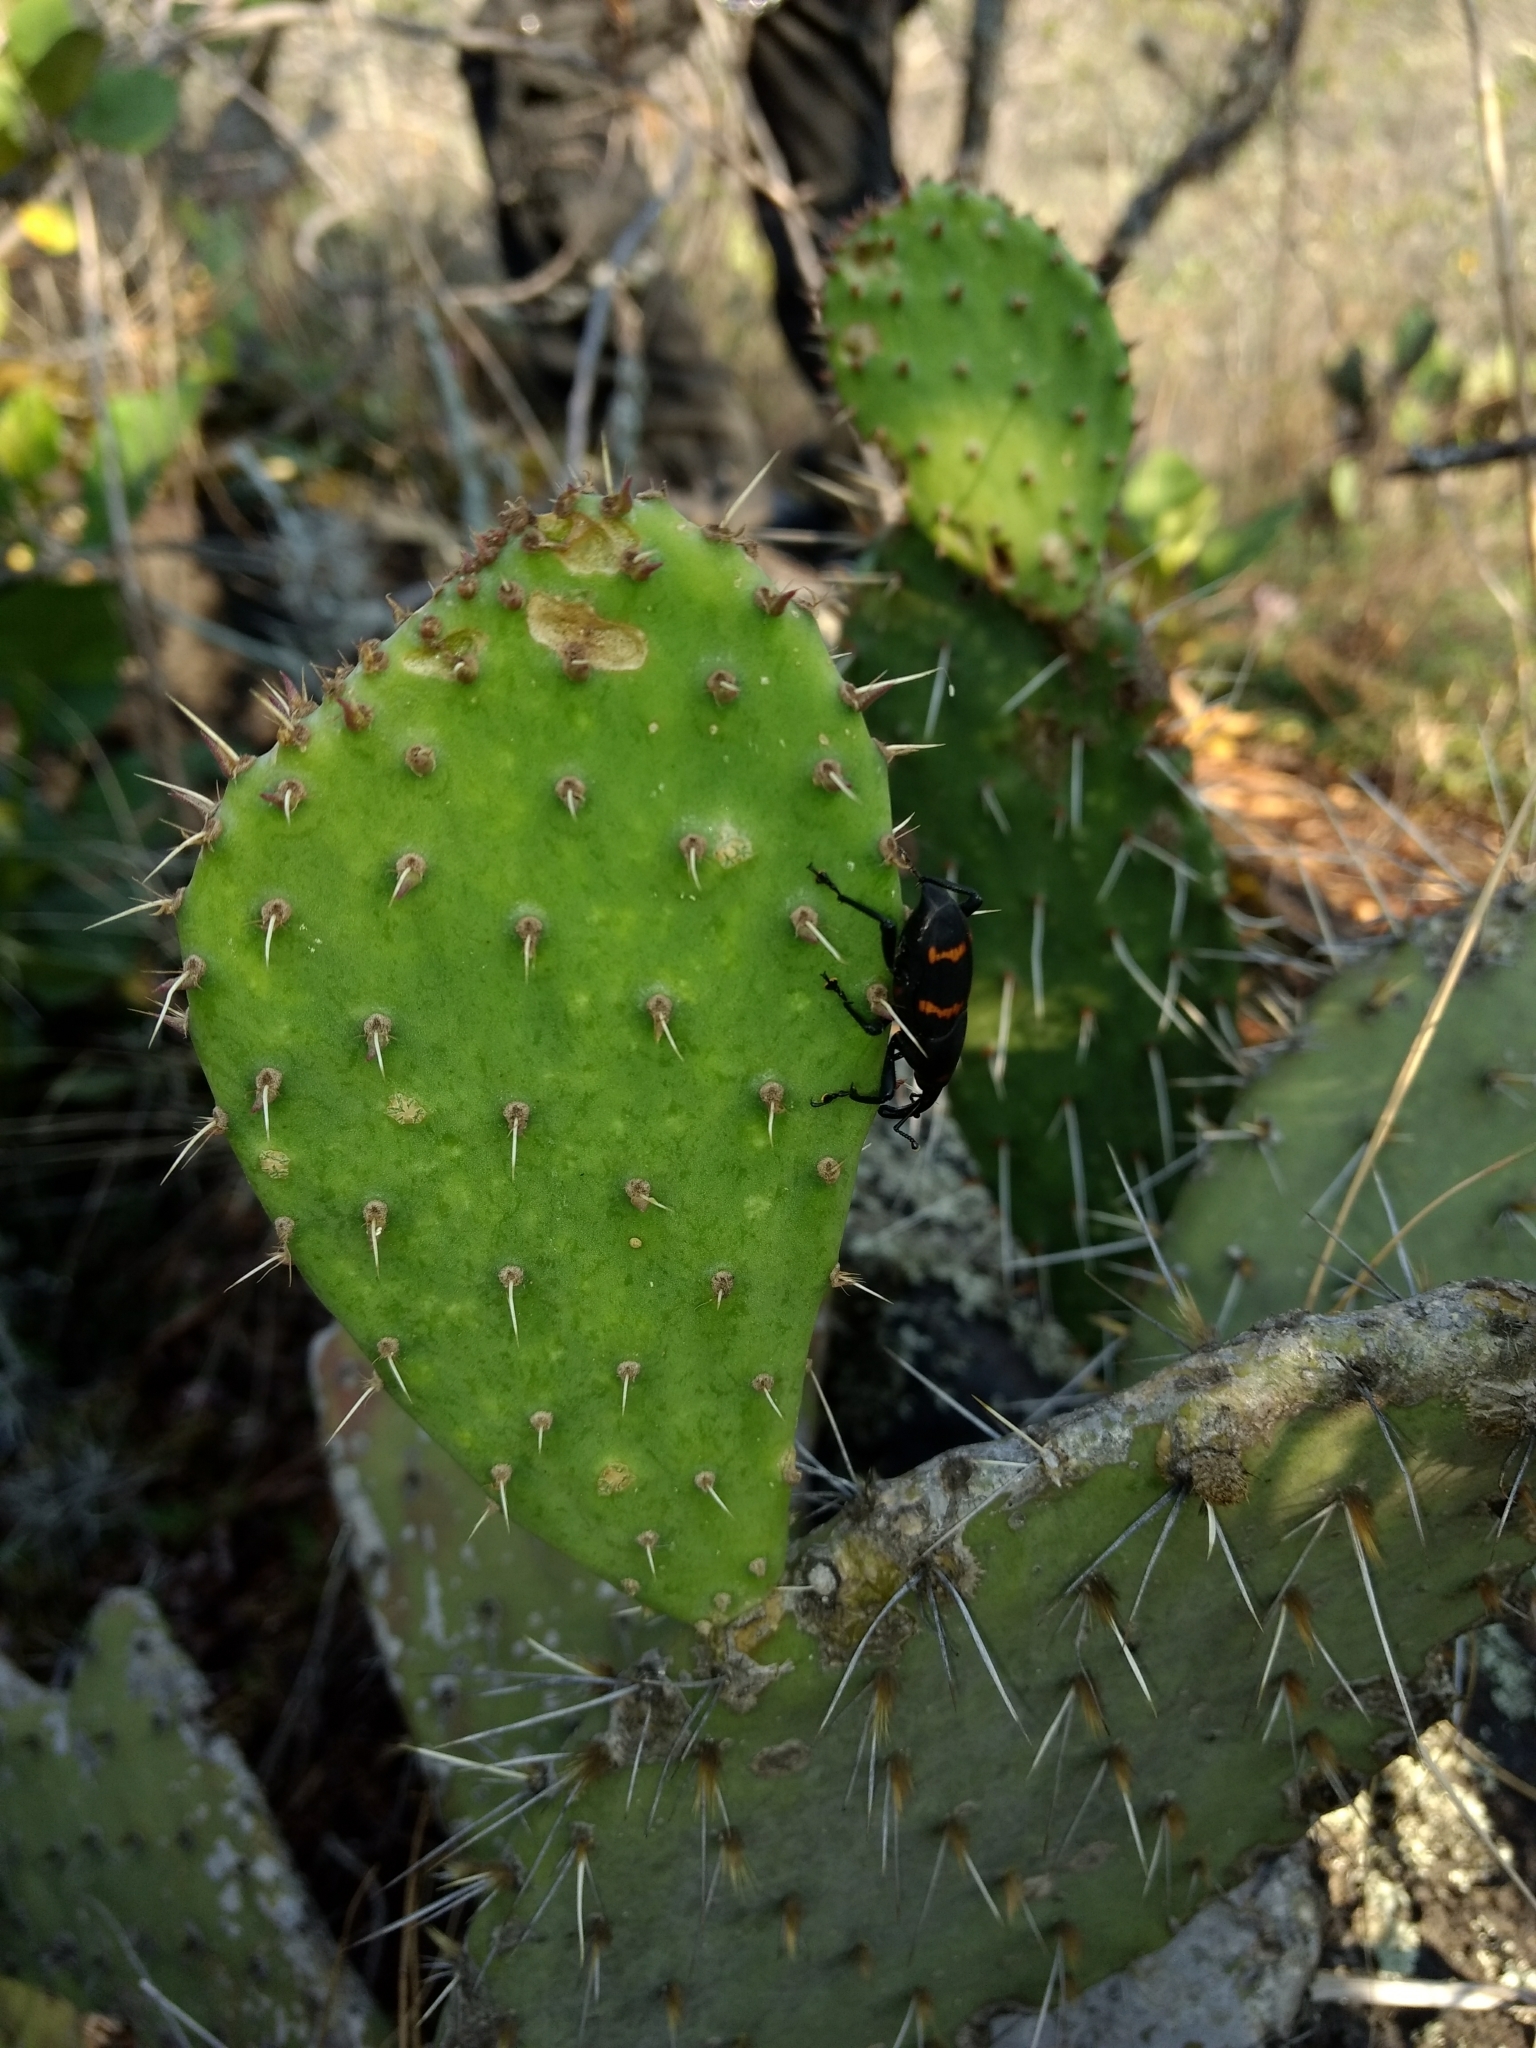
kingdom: Animalia
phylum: Arthropoda
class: Insecta
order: Coleoptera
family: Dryophthoridae
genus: Cactophagus
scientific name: Cactophagus spinolae
